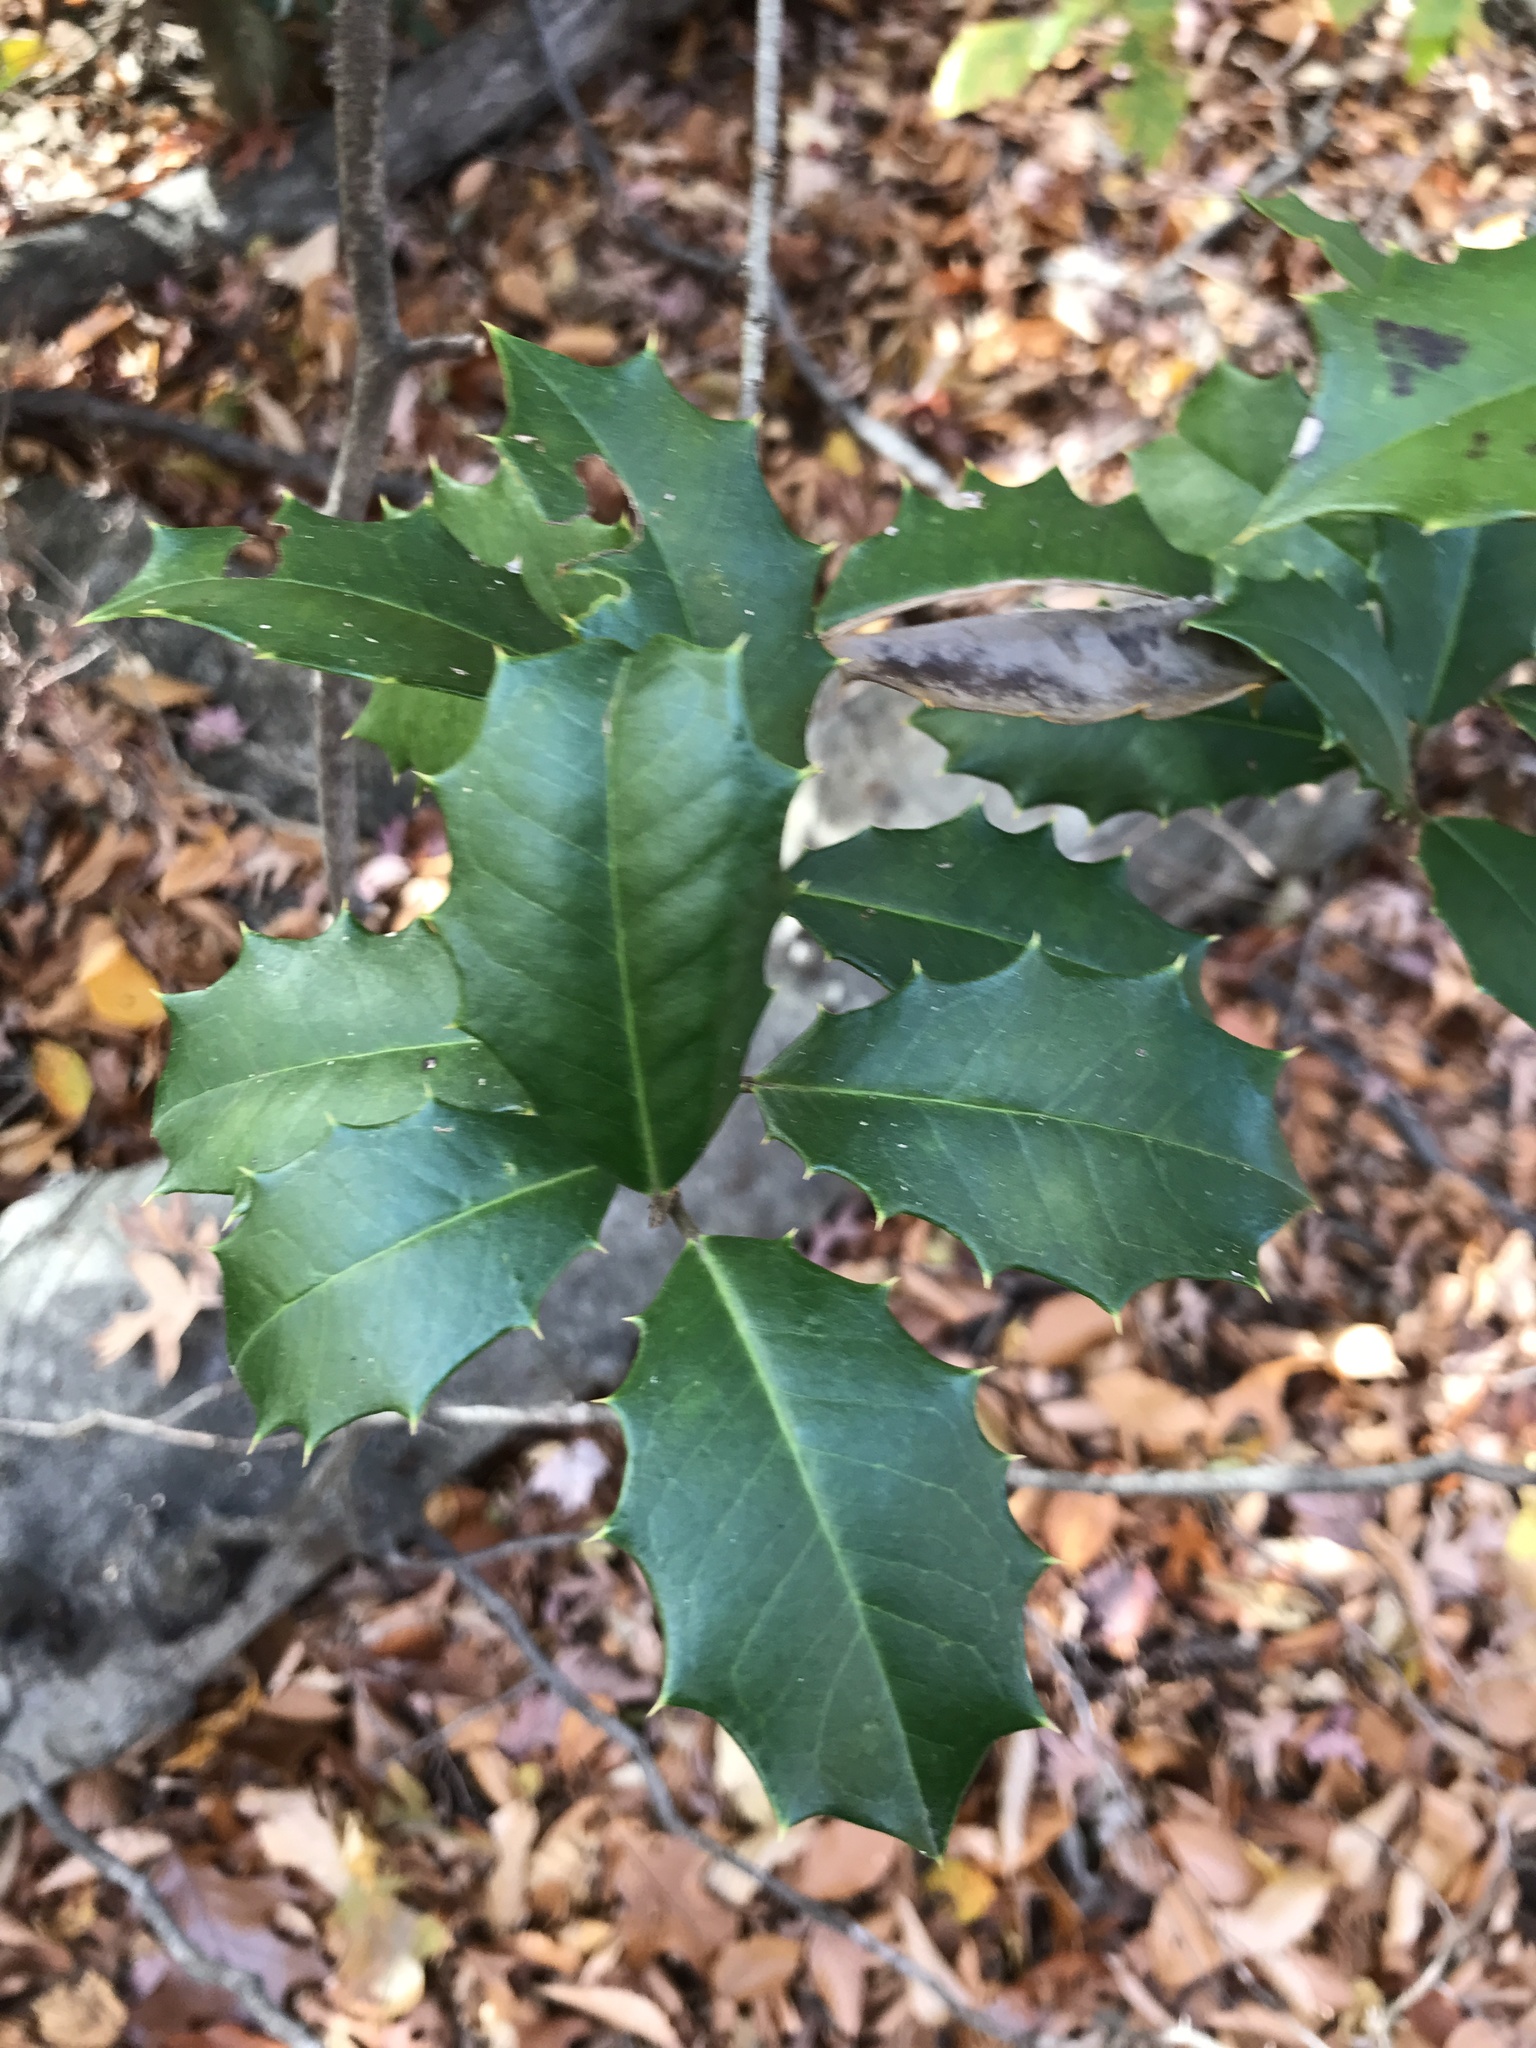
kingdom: Plantae
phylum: Tracheophyta
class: Magnoliopsida
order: Aquifoliales
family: Aquifoliaceae
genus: Ilex
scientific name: Ilex opaca
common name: American holly
